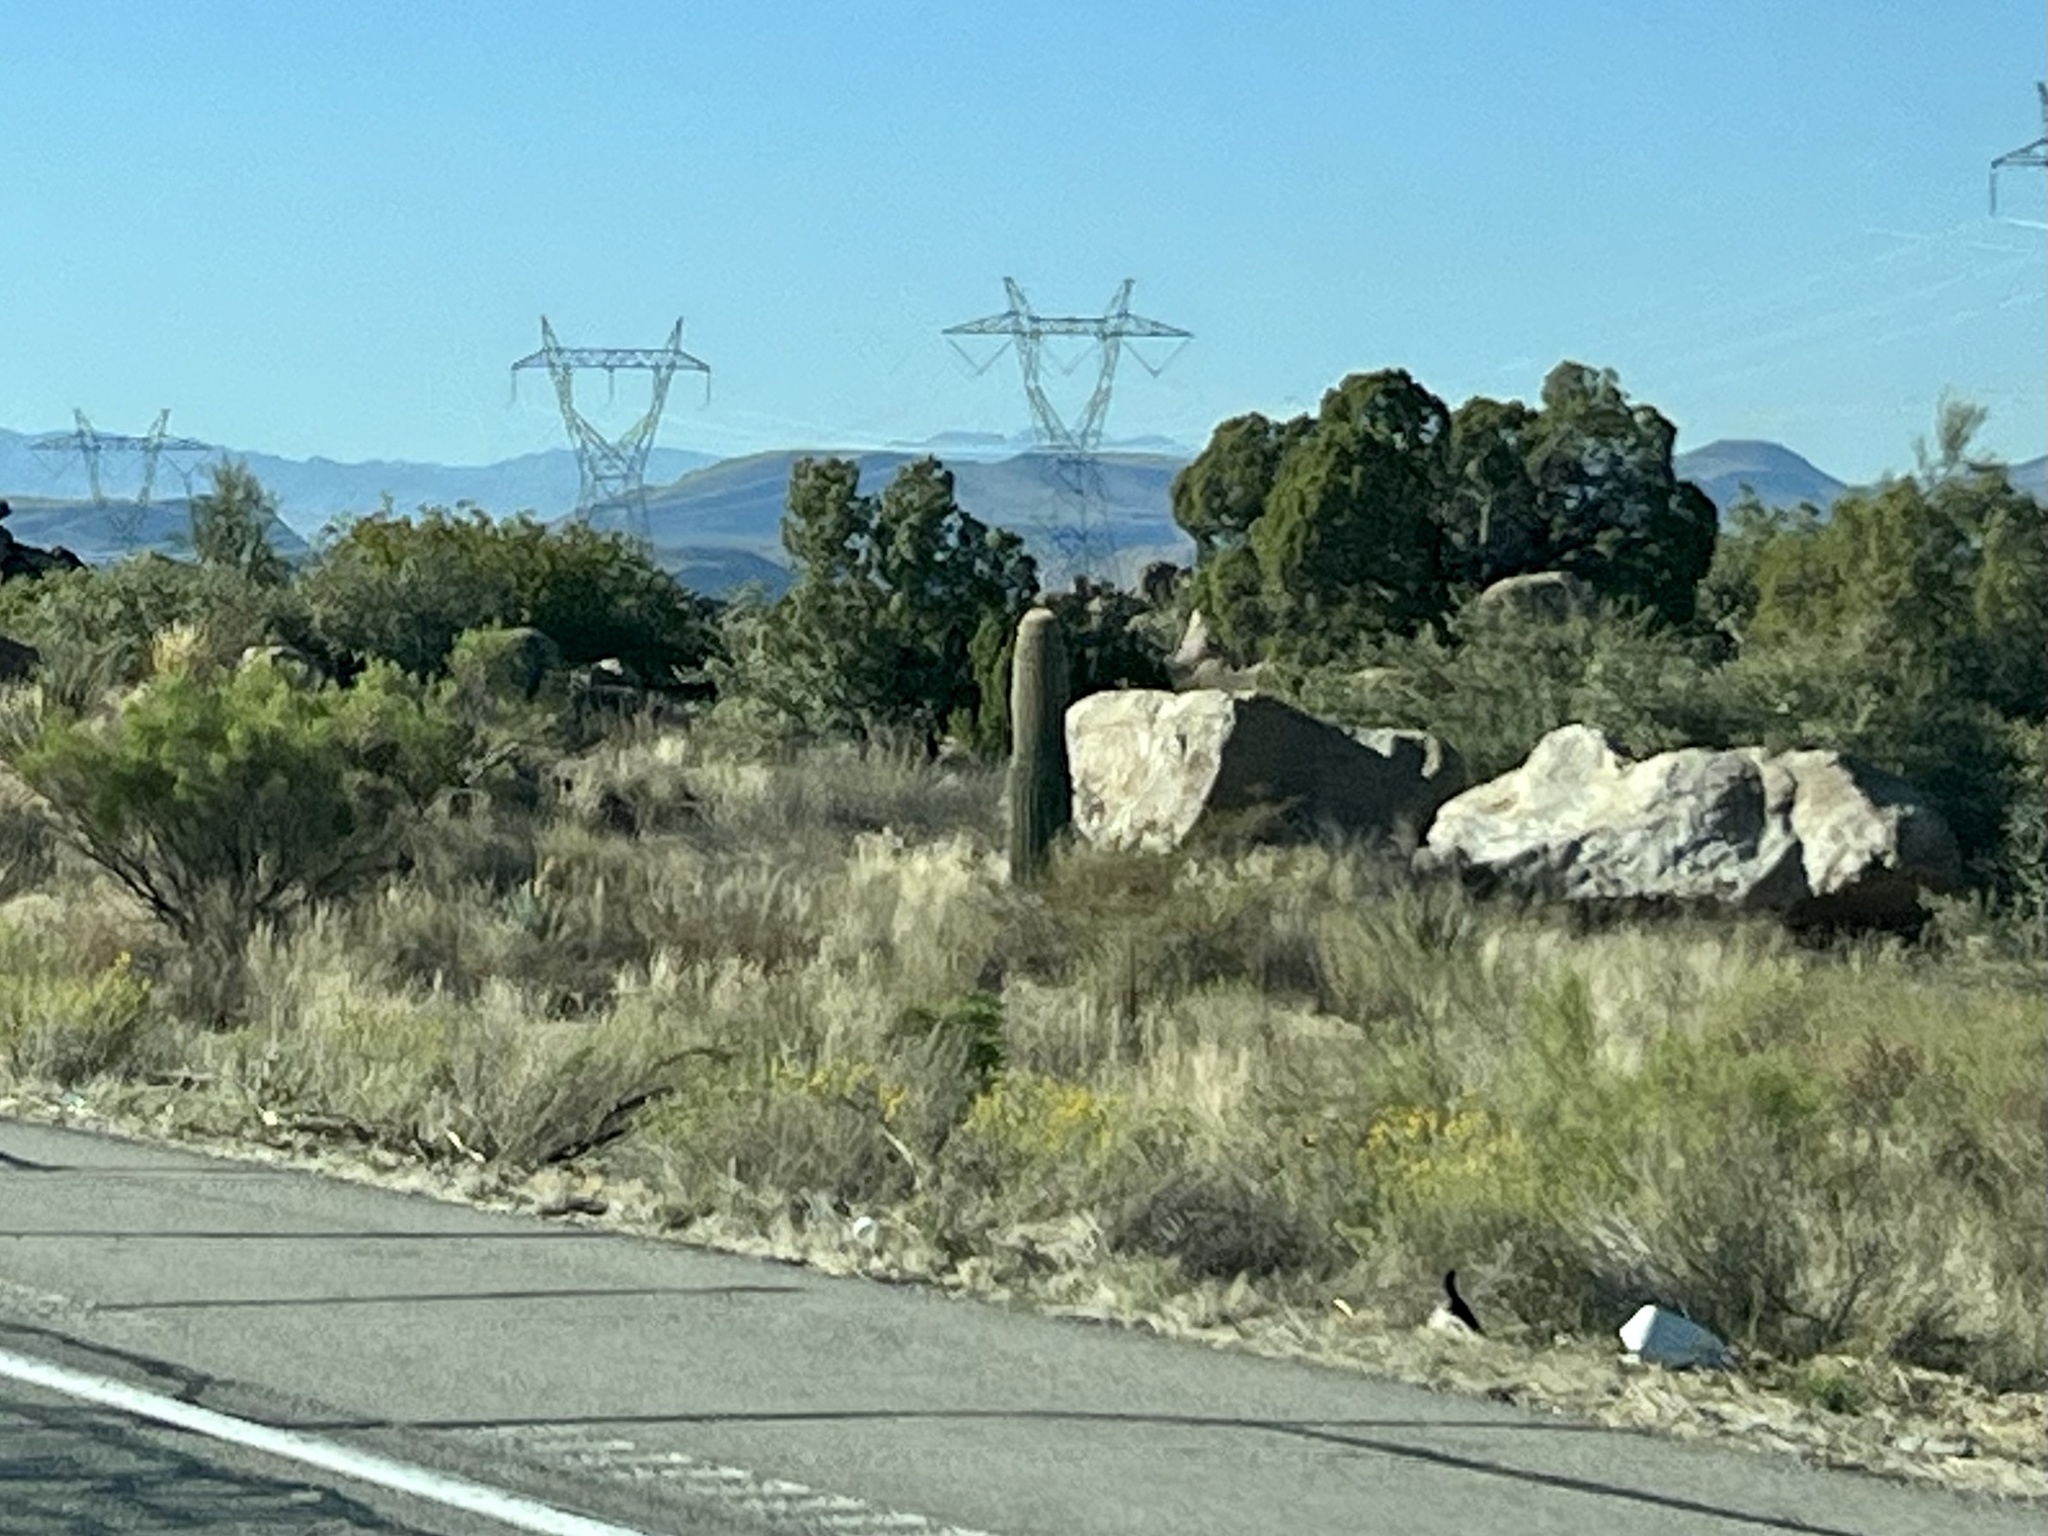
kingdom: Plantae
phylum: Tracheophyta
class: Magnoliopsida
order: Caryophyllales
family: Cactaceae
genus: Carnegiea
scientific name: Carnegiea gigantea
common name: Saguaro
